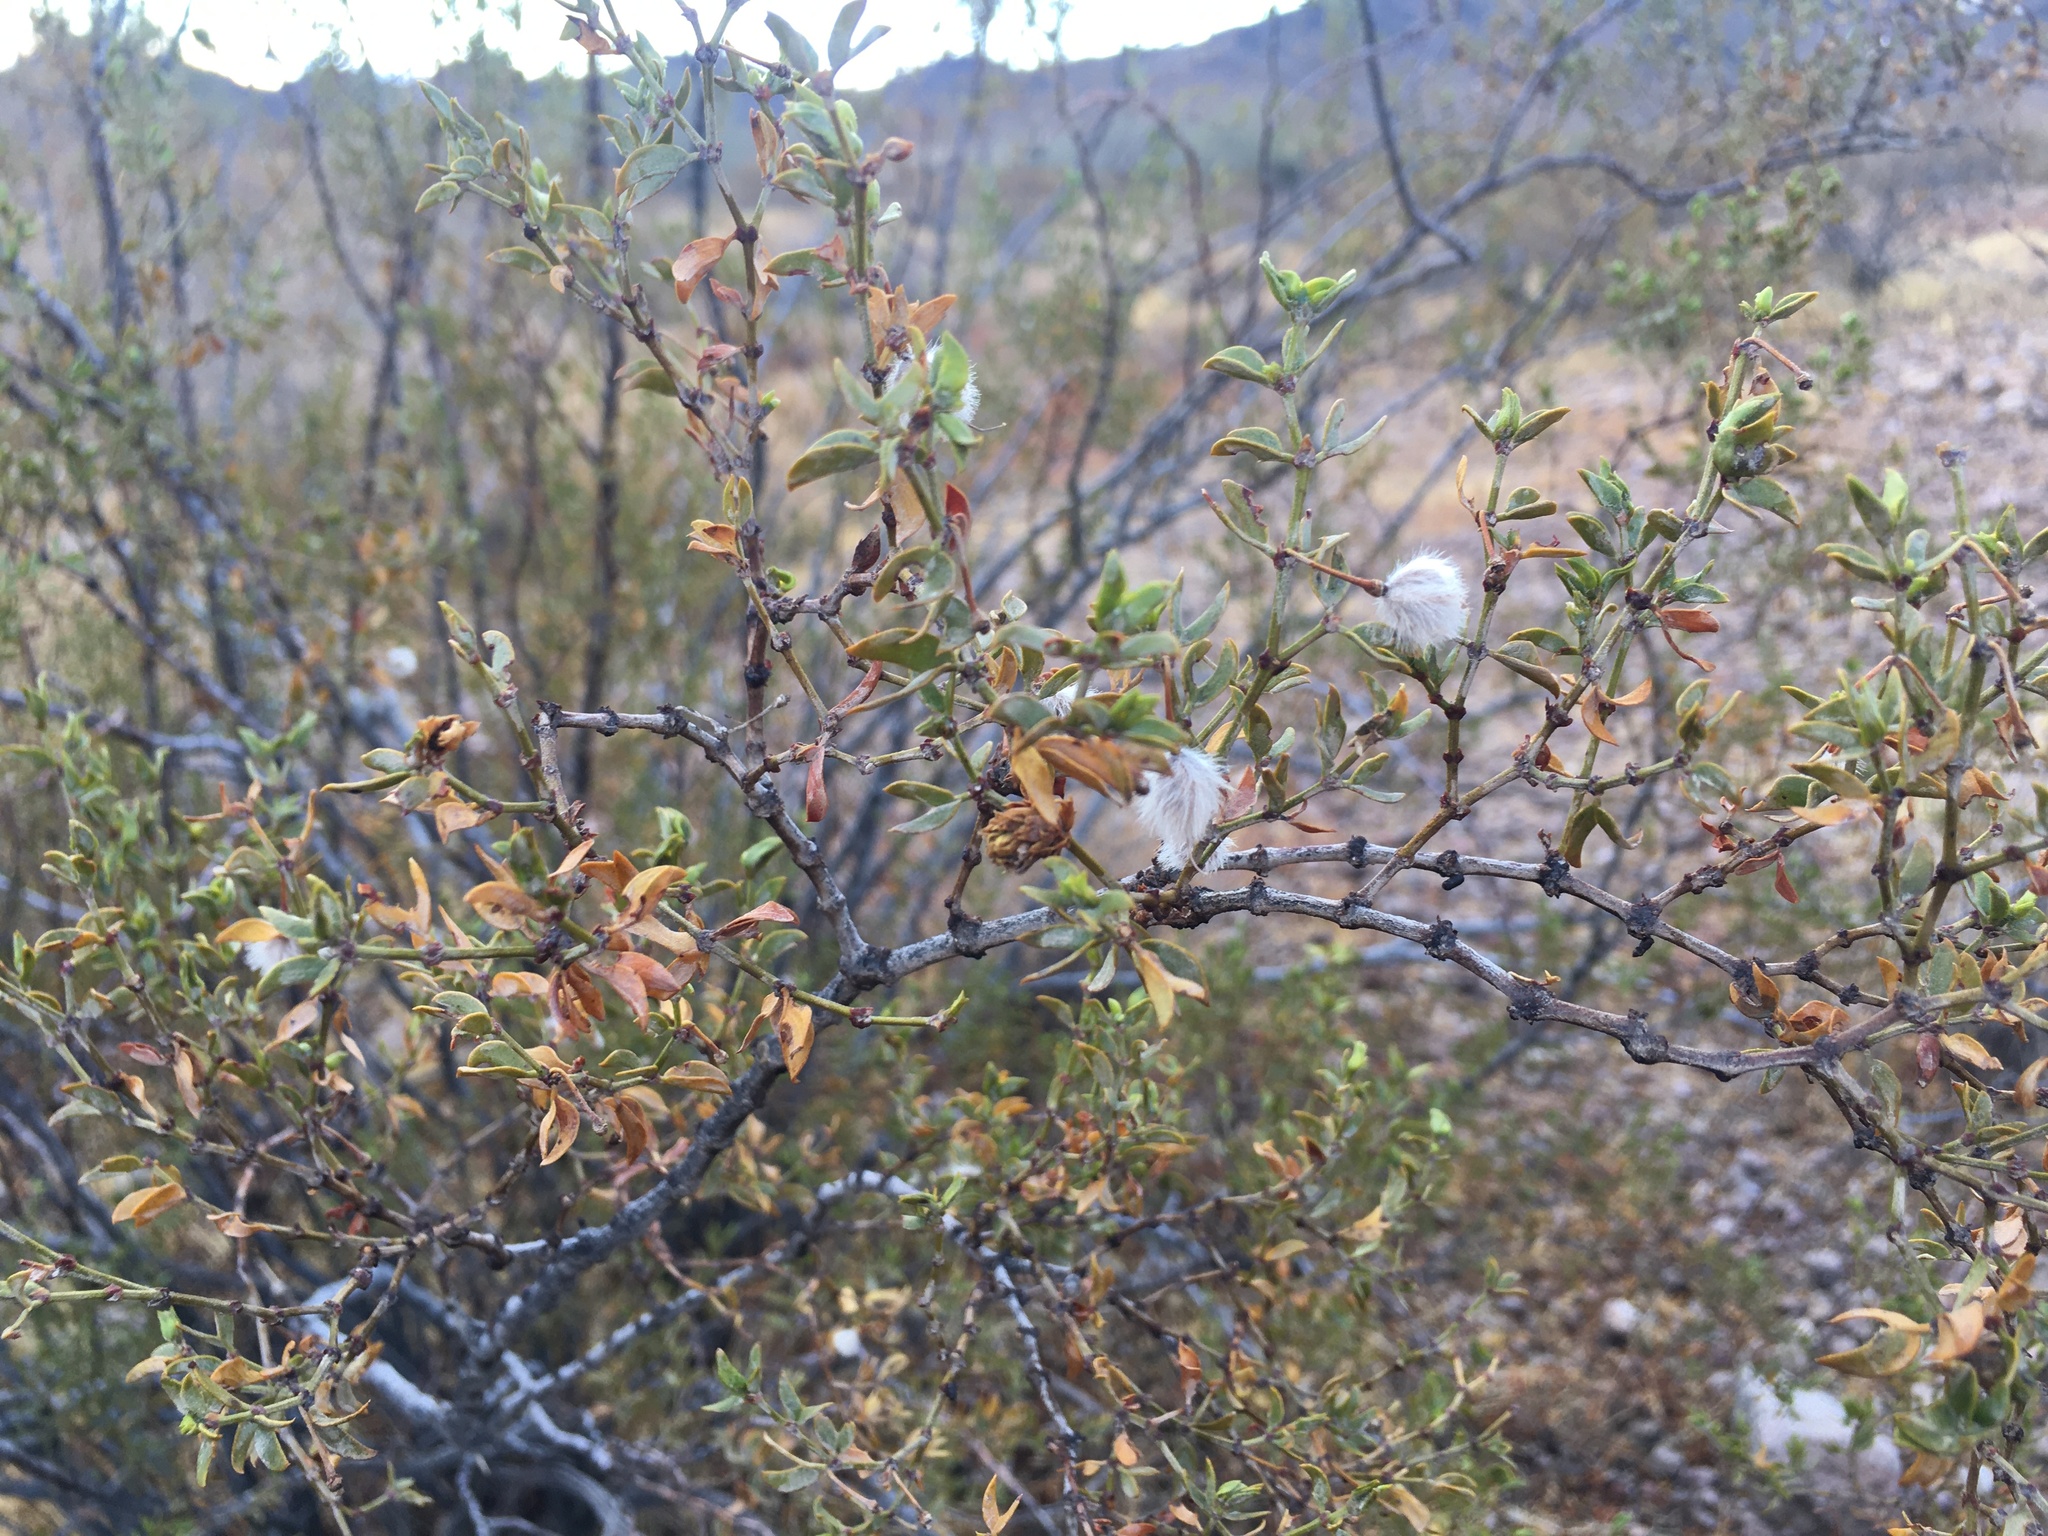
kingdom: Plantae
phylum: Tracheophyta
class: Magnoliopsida
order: Zygophyllales
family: Zygophyllaceae
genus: Larrea
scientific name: Larrea tridentata
